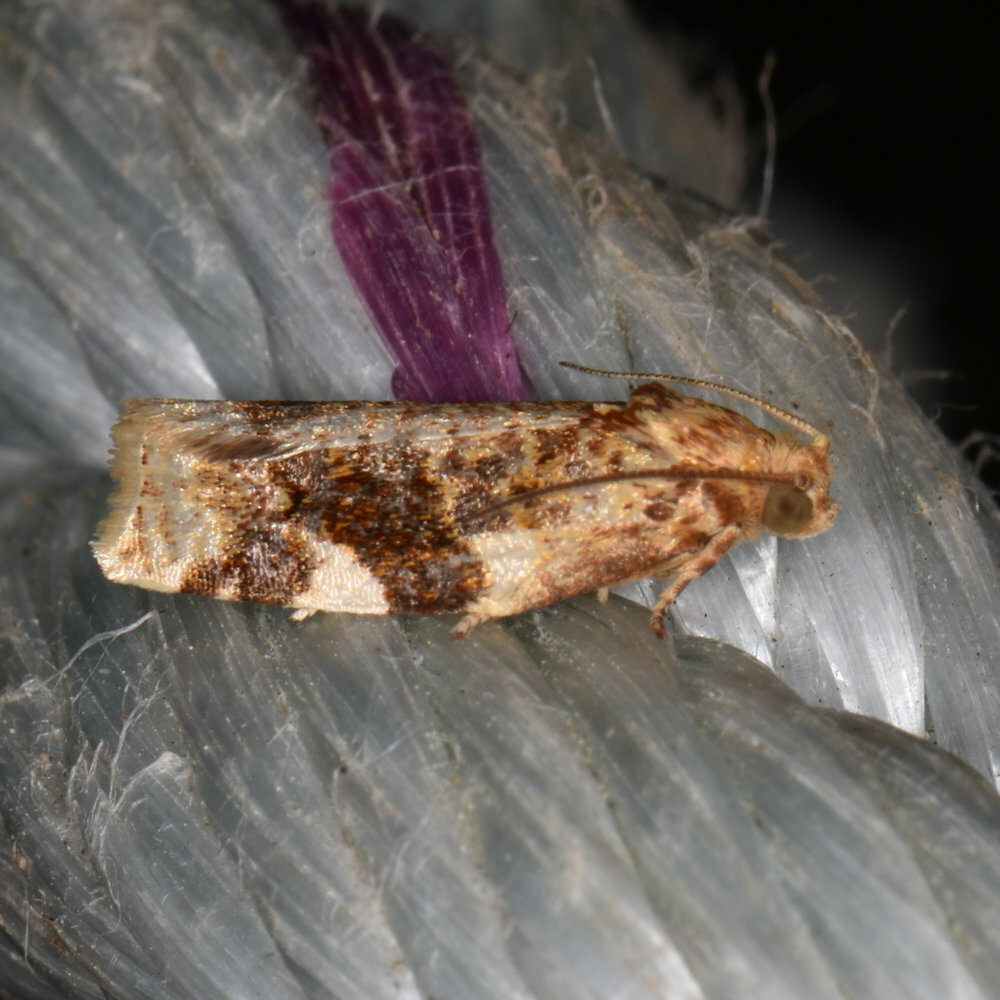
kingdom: Animalia
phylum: Arthropoda
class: Insecta
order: Lepidoptera
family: Tortricidae
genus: Archips
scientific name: Archips argyrospila
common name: Fruit-tree leafroller moth
